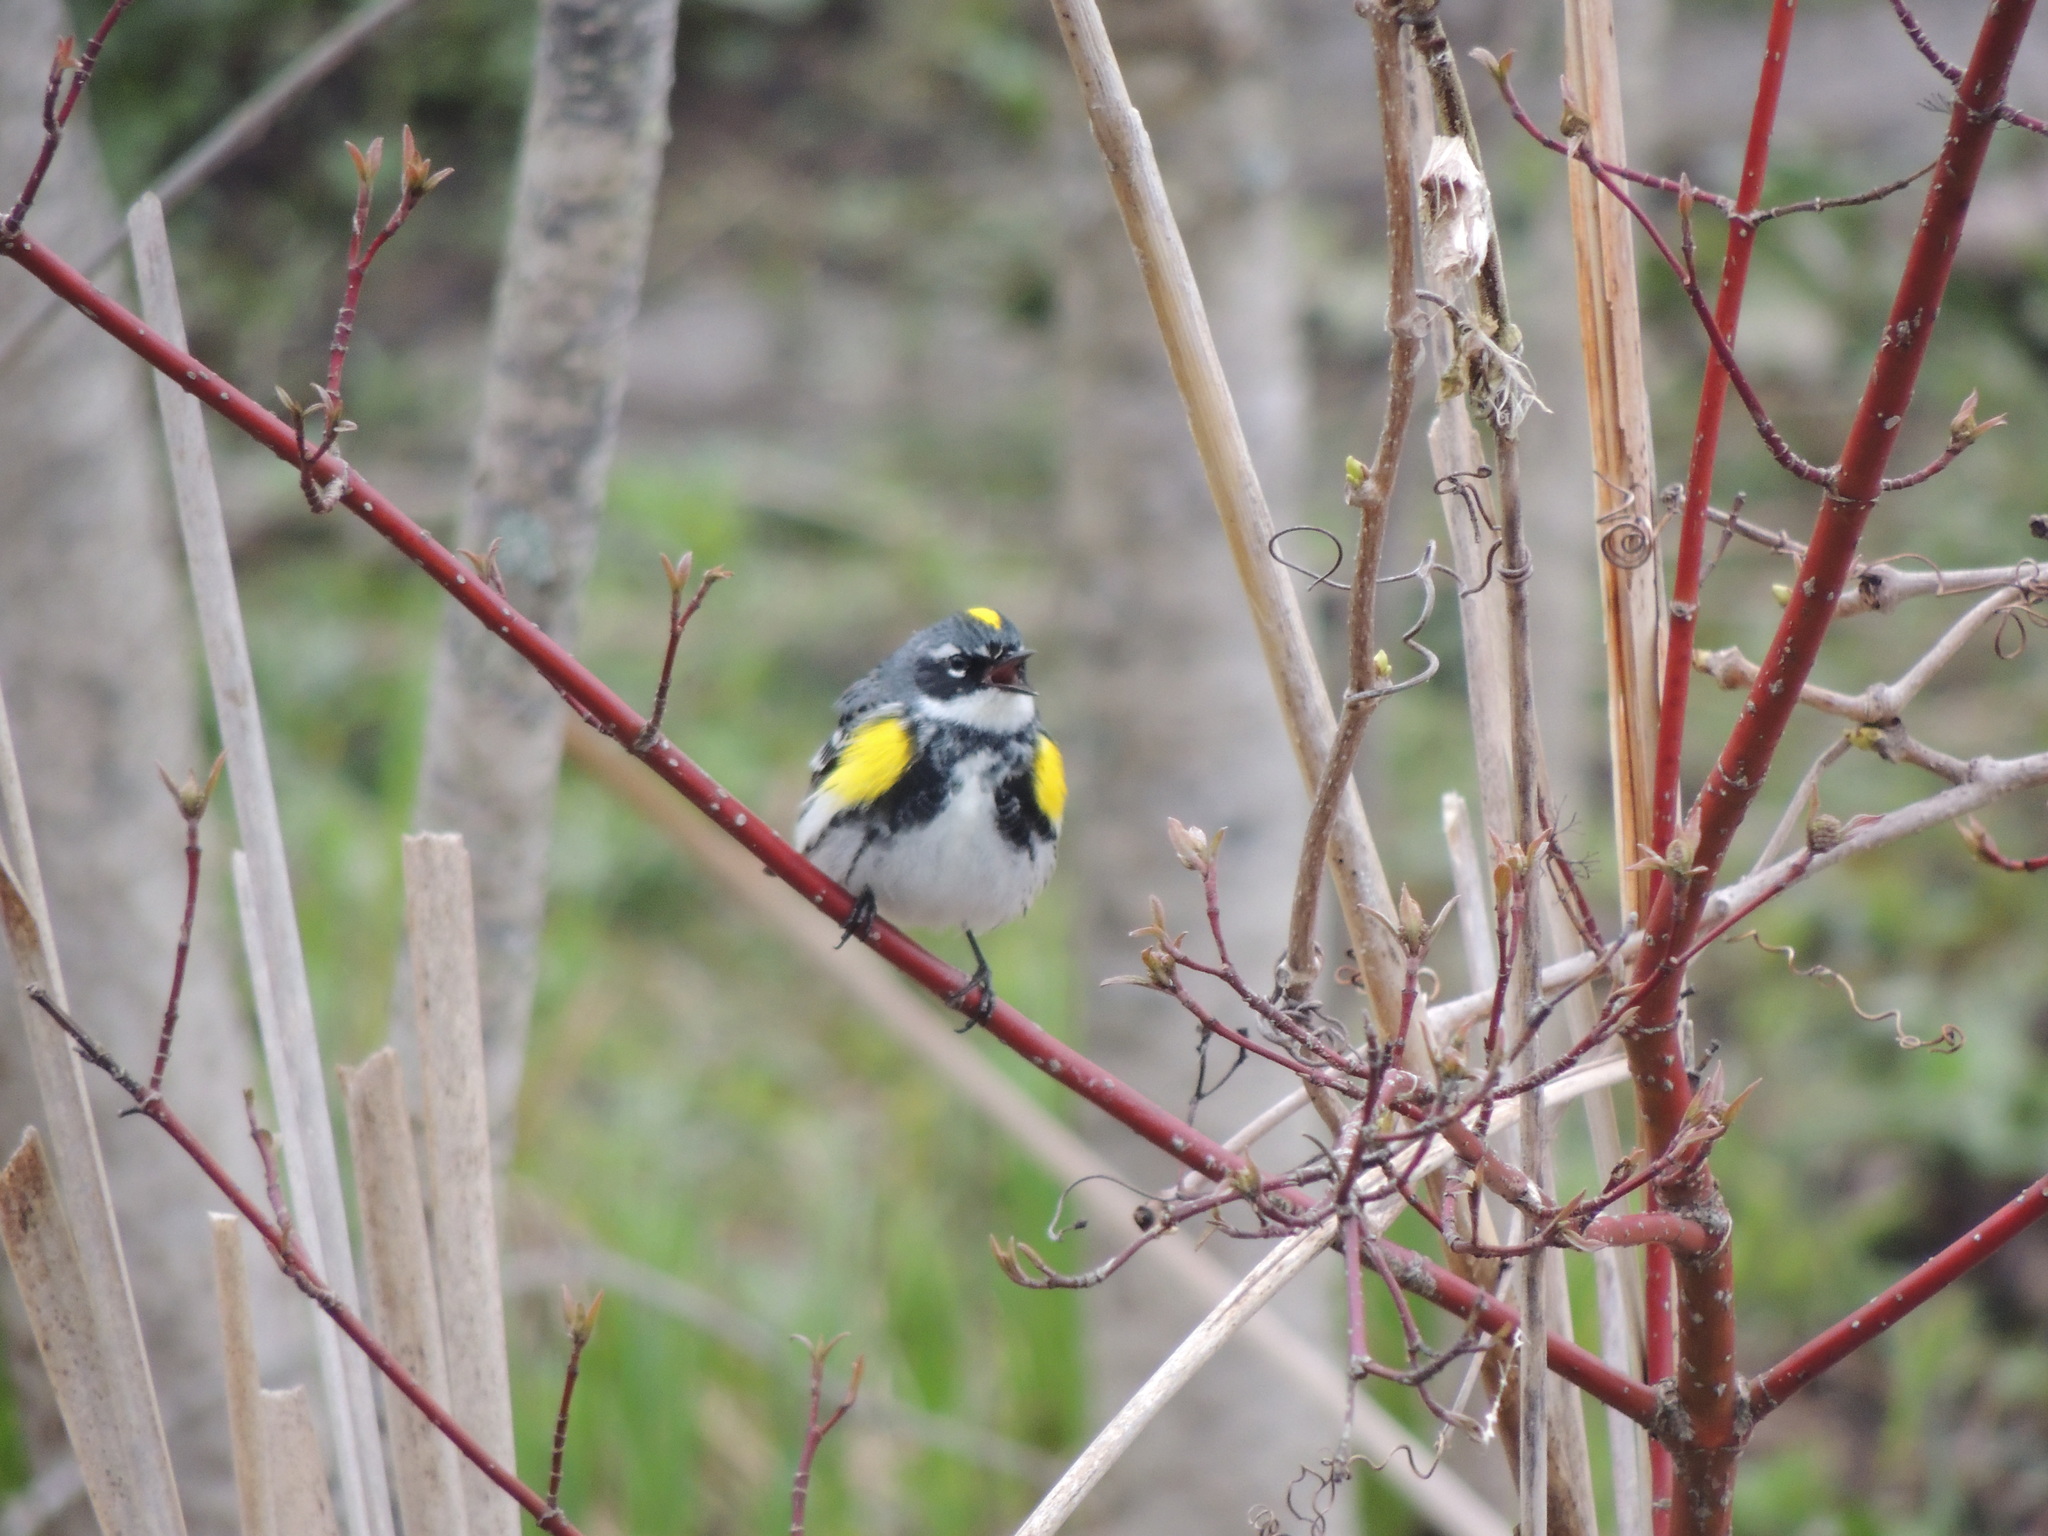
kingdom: Animalia
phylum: Chordata
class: Aves
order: Passeriformes
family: Parulidae
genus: Setophaga
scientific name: Setophaga coronata
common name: Myrtle warbler
